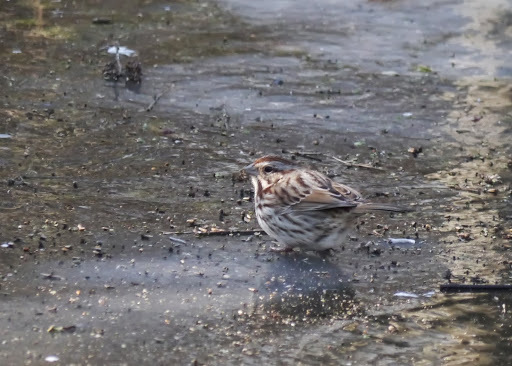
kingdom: Animalia
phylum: Chordata
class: Aves
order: Passeriformes
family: Passerellidae
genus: Melospiza
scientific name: Melospiza melodia
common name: Song sparrow
